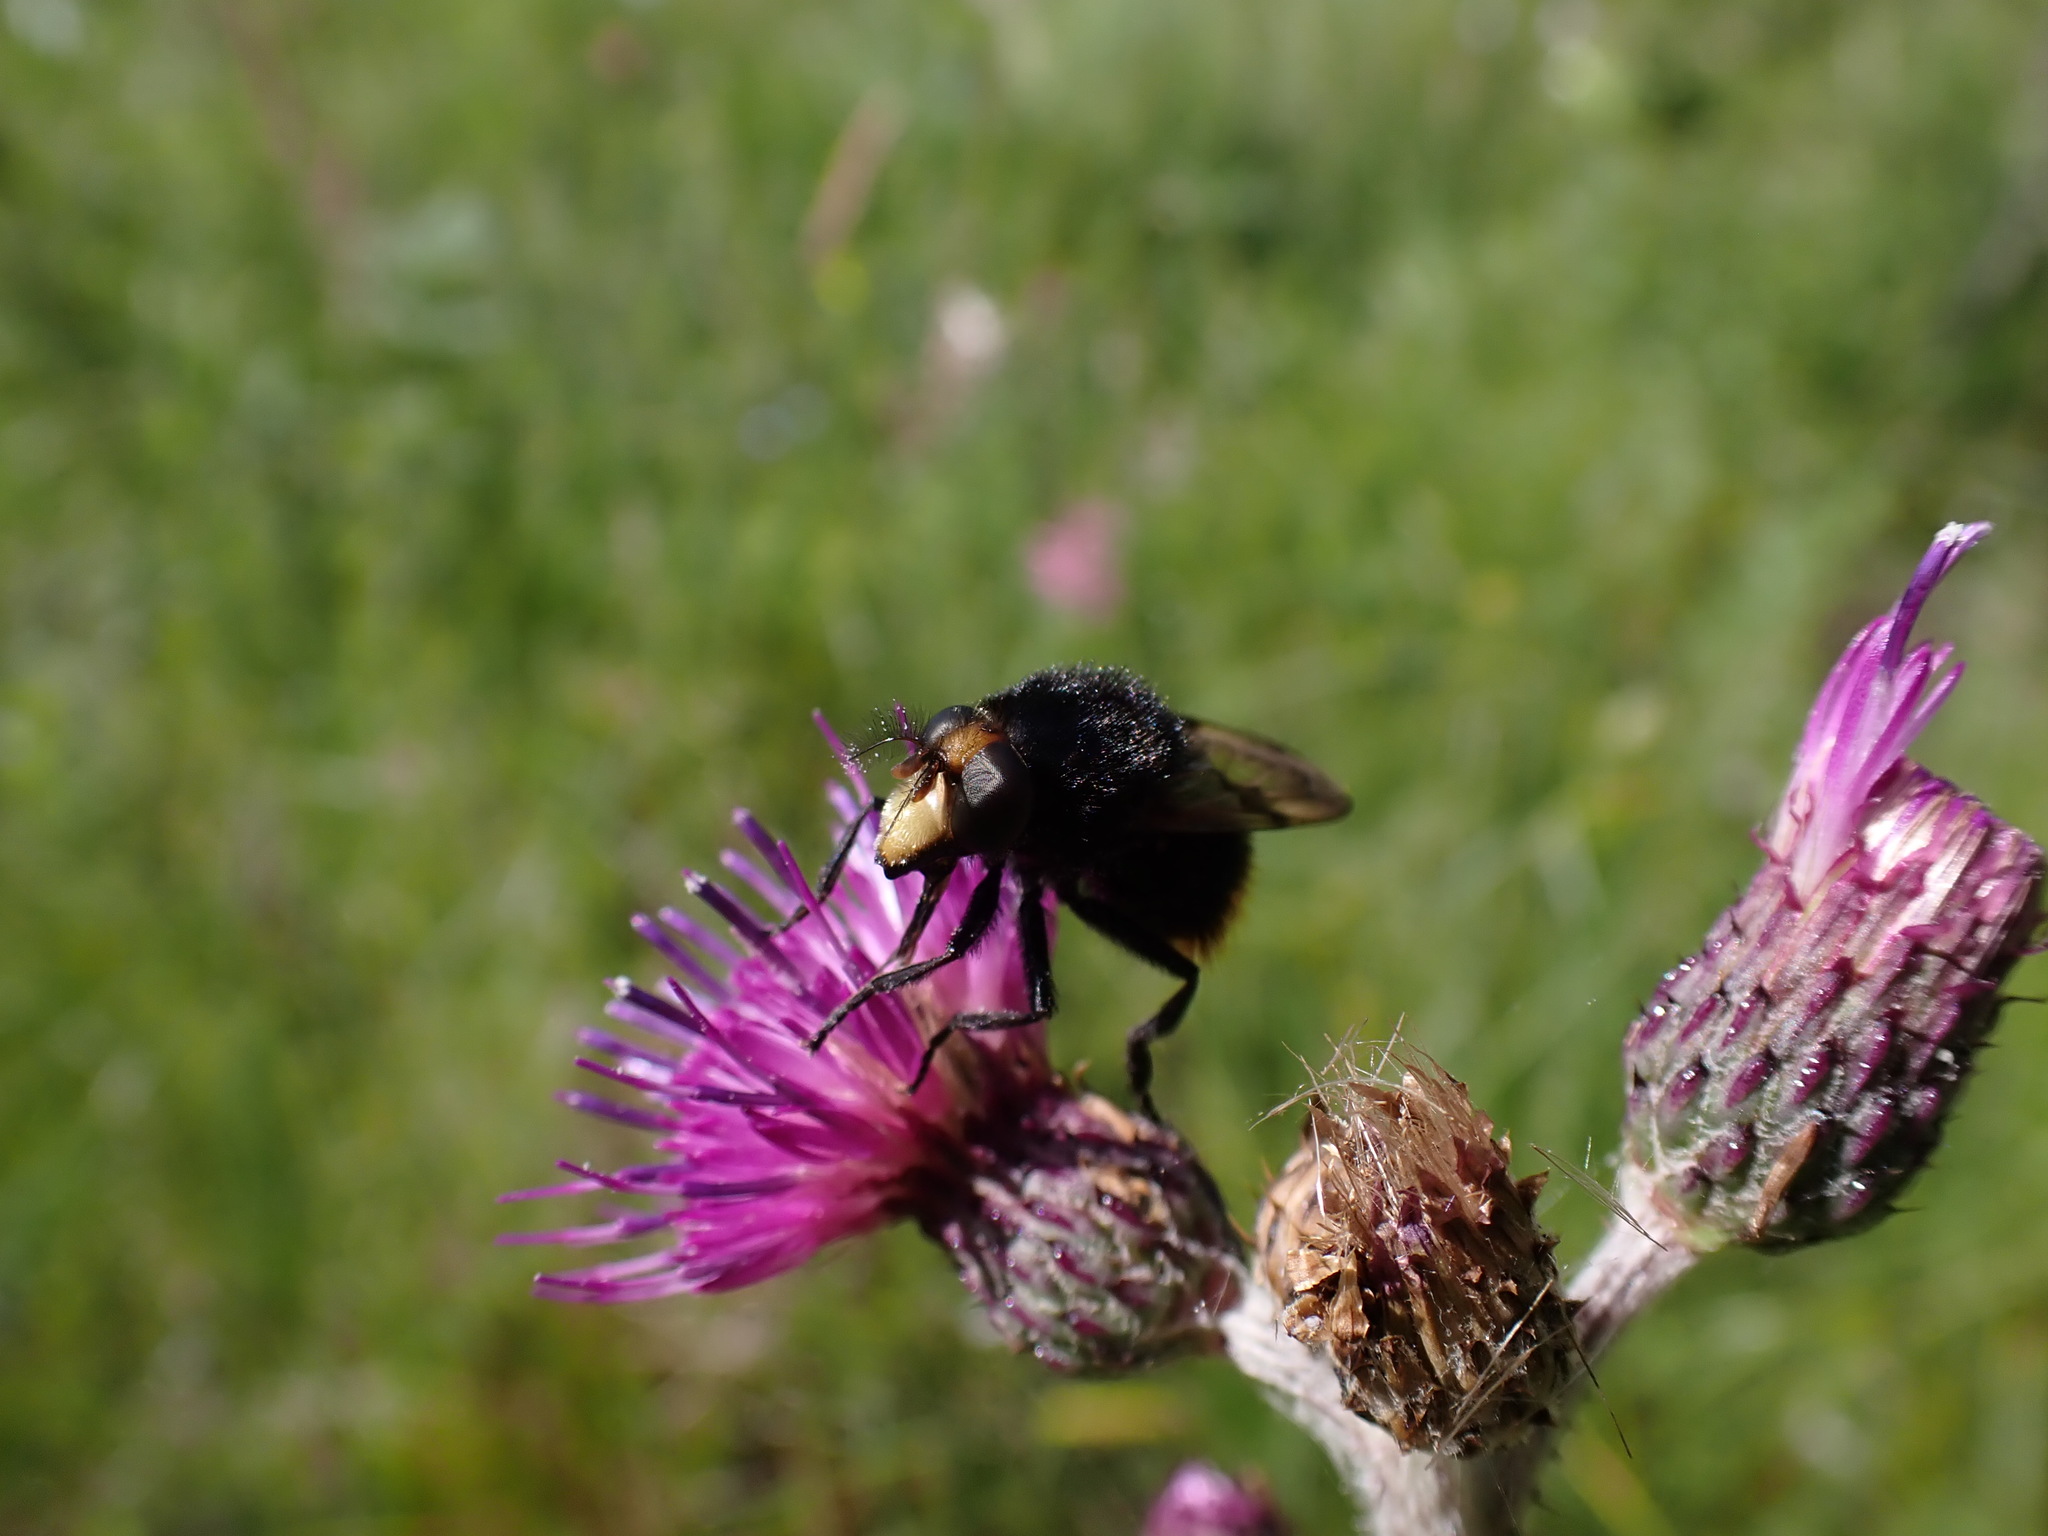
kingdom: Animalia
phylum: Arthropoda
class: Insecta
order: Diptera
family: Syrphidae
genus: Volucella
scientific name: Volucella bombylans
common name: Bumble bee hover fly
